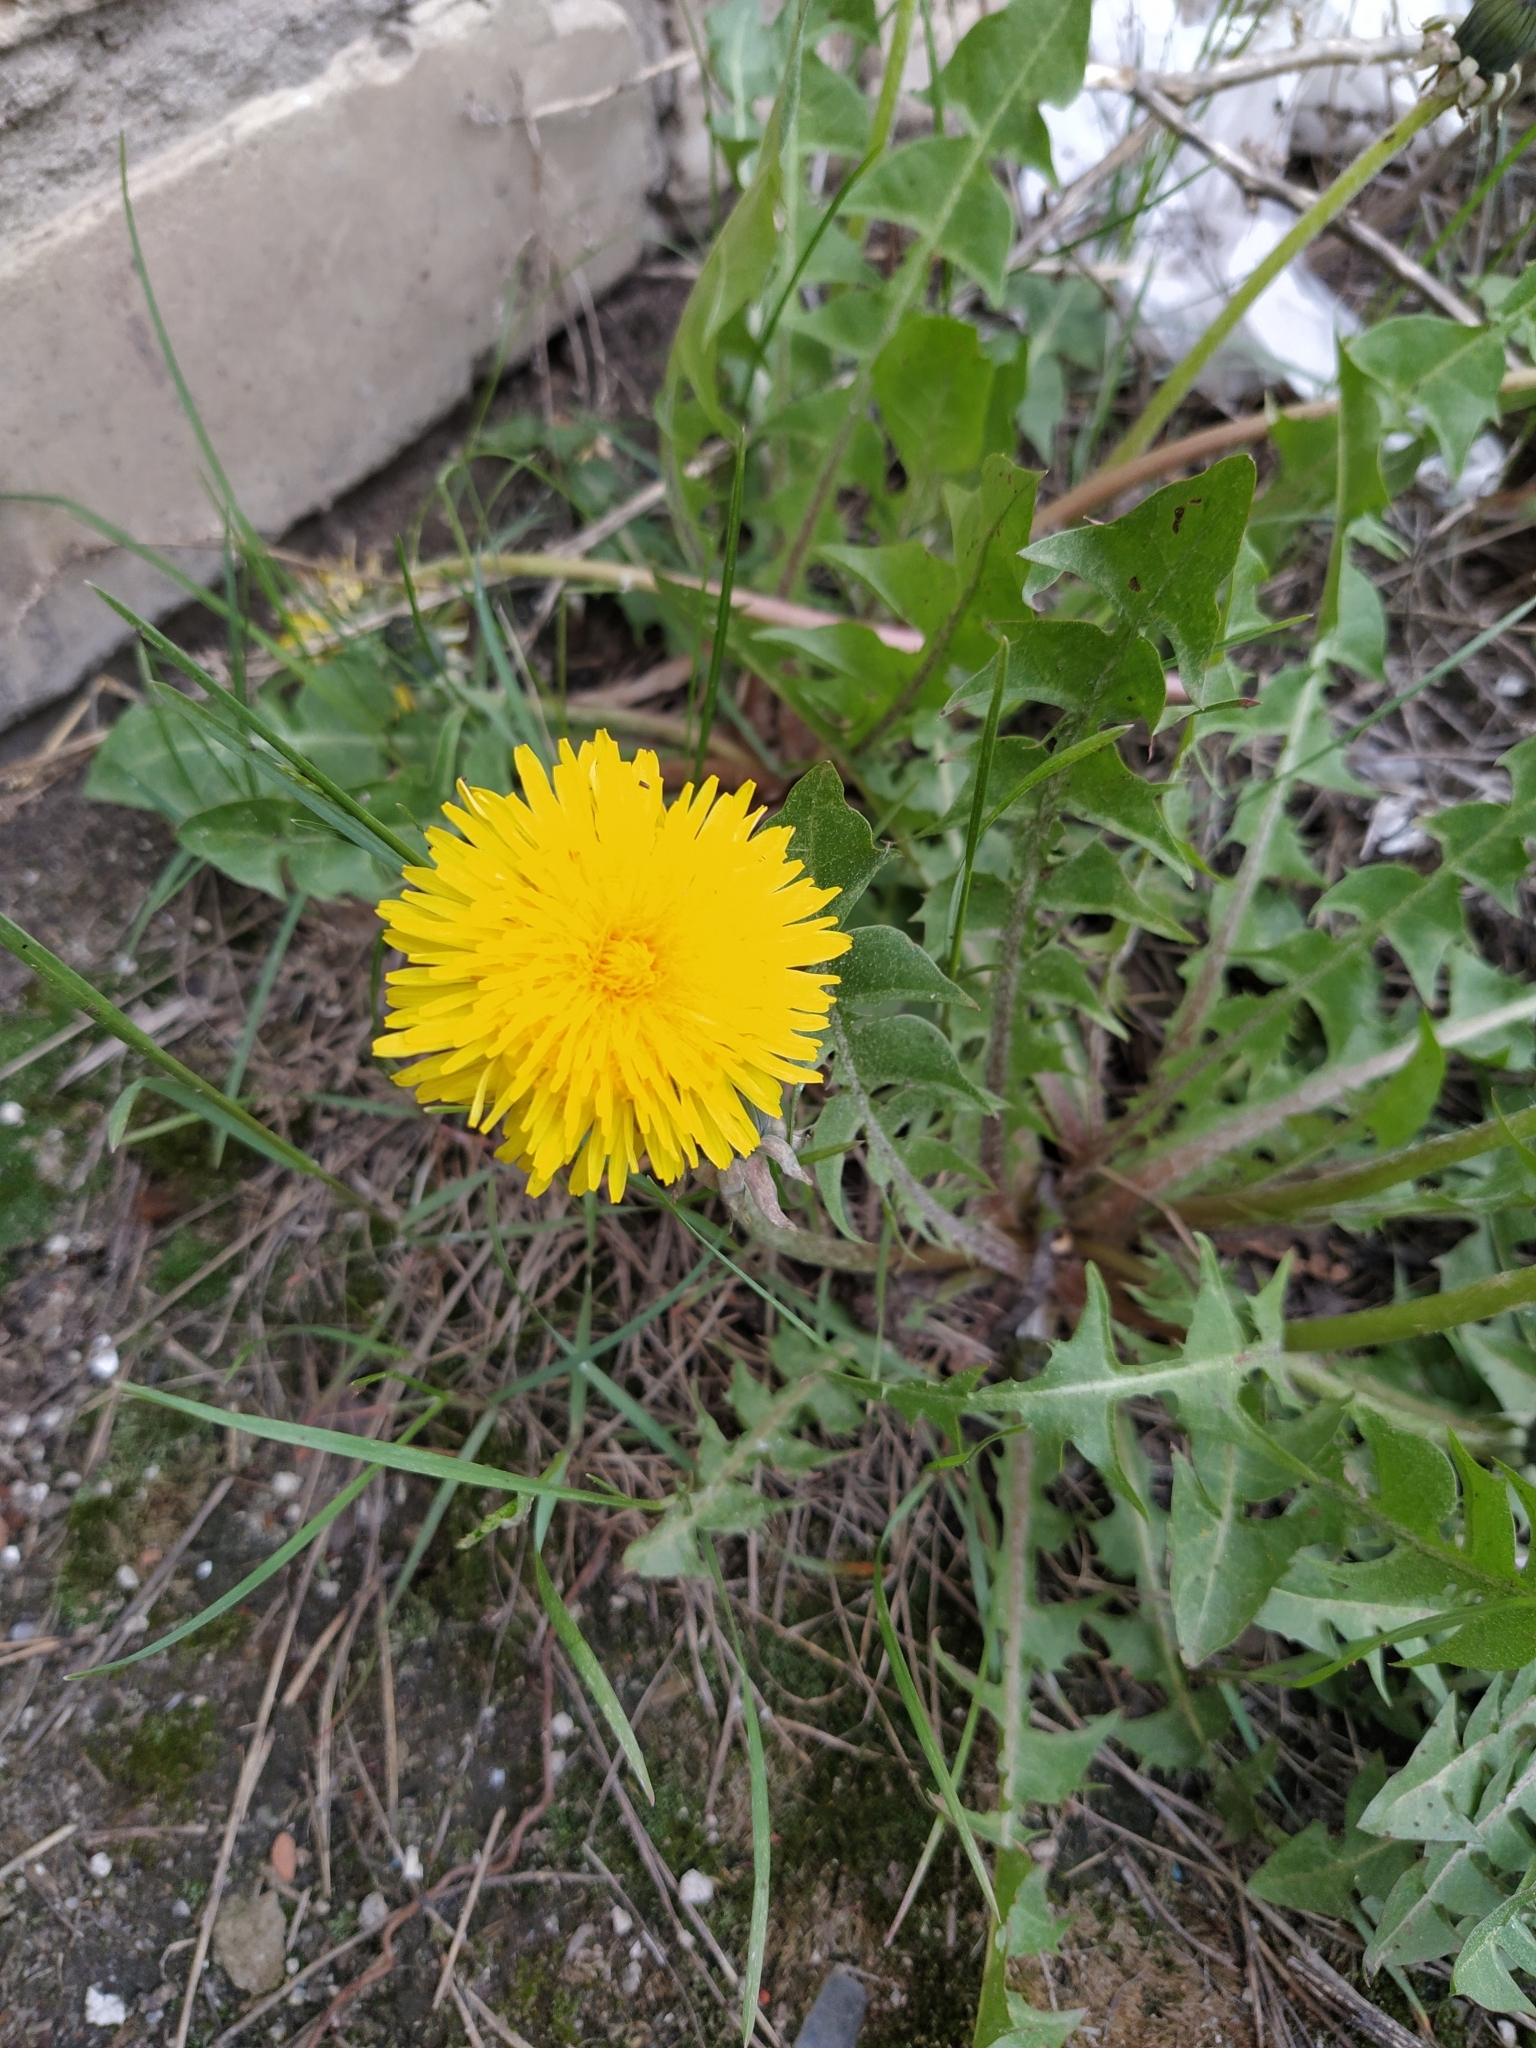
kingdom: Plantae
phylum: Tracheophyta
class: Magnoliopsida
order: Asterales
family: Asteraceae
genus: Taraxacum
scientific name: Taraxacum officinale
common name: Common dandelion
